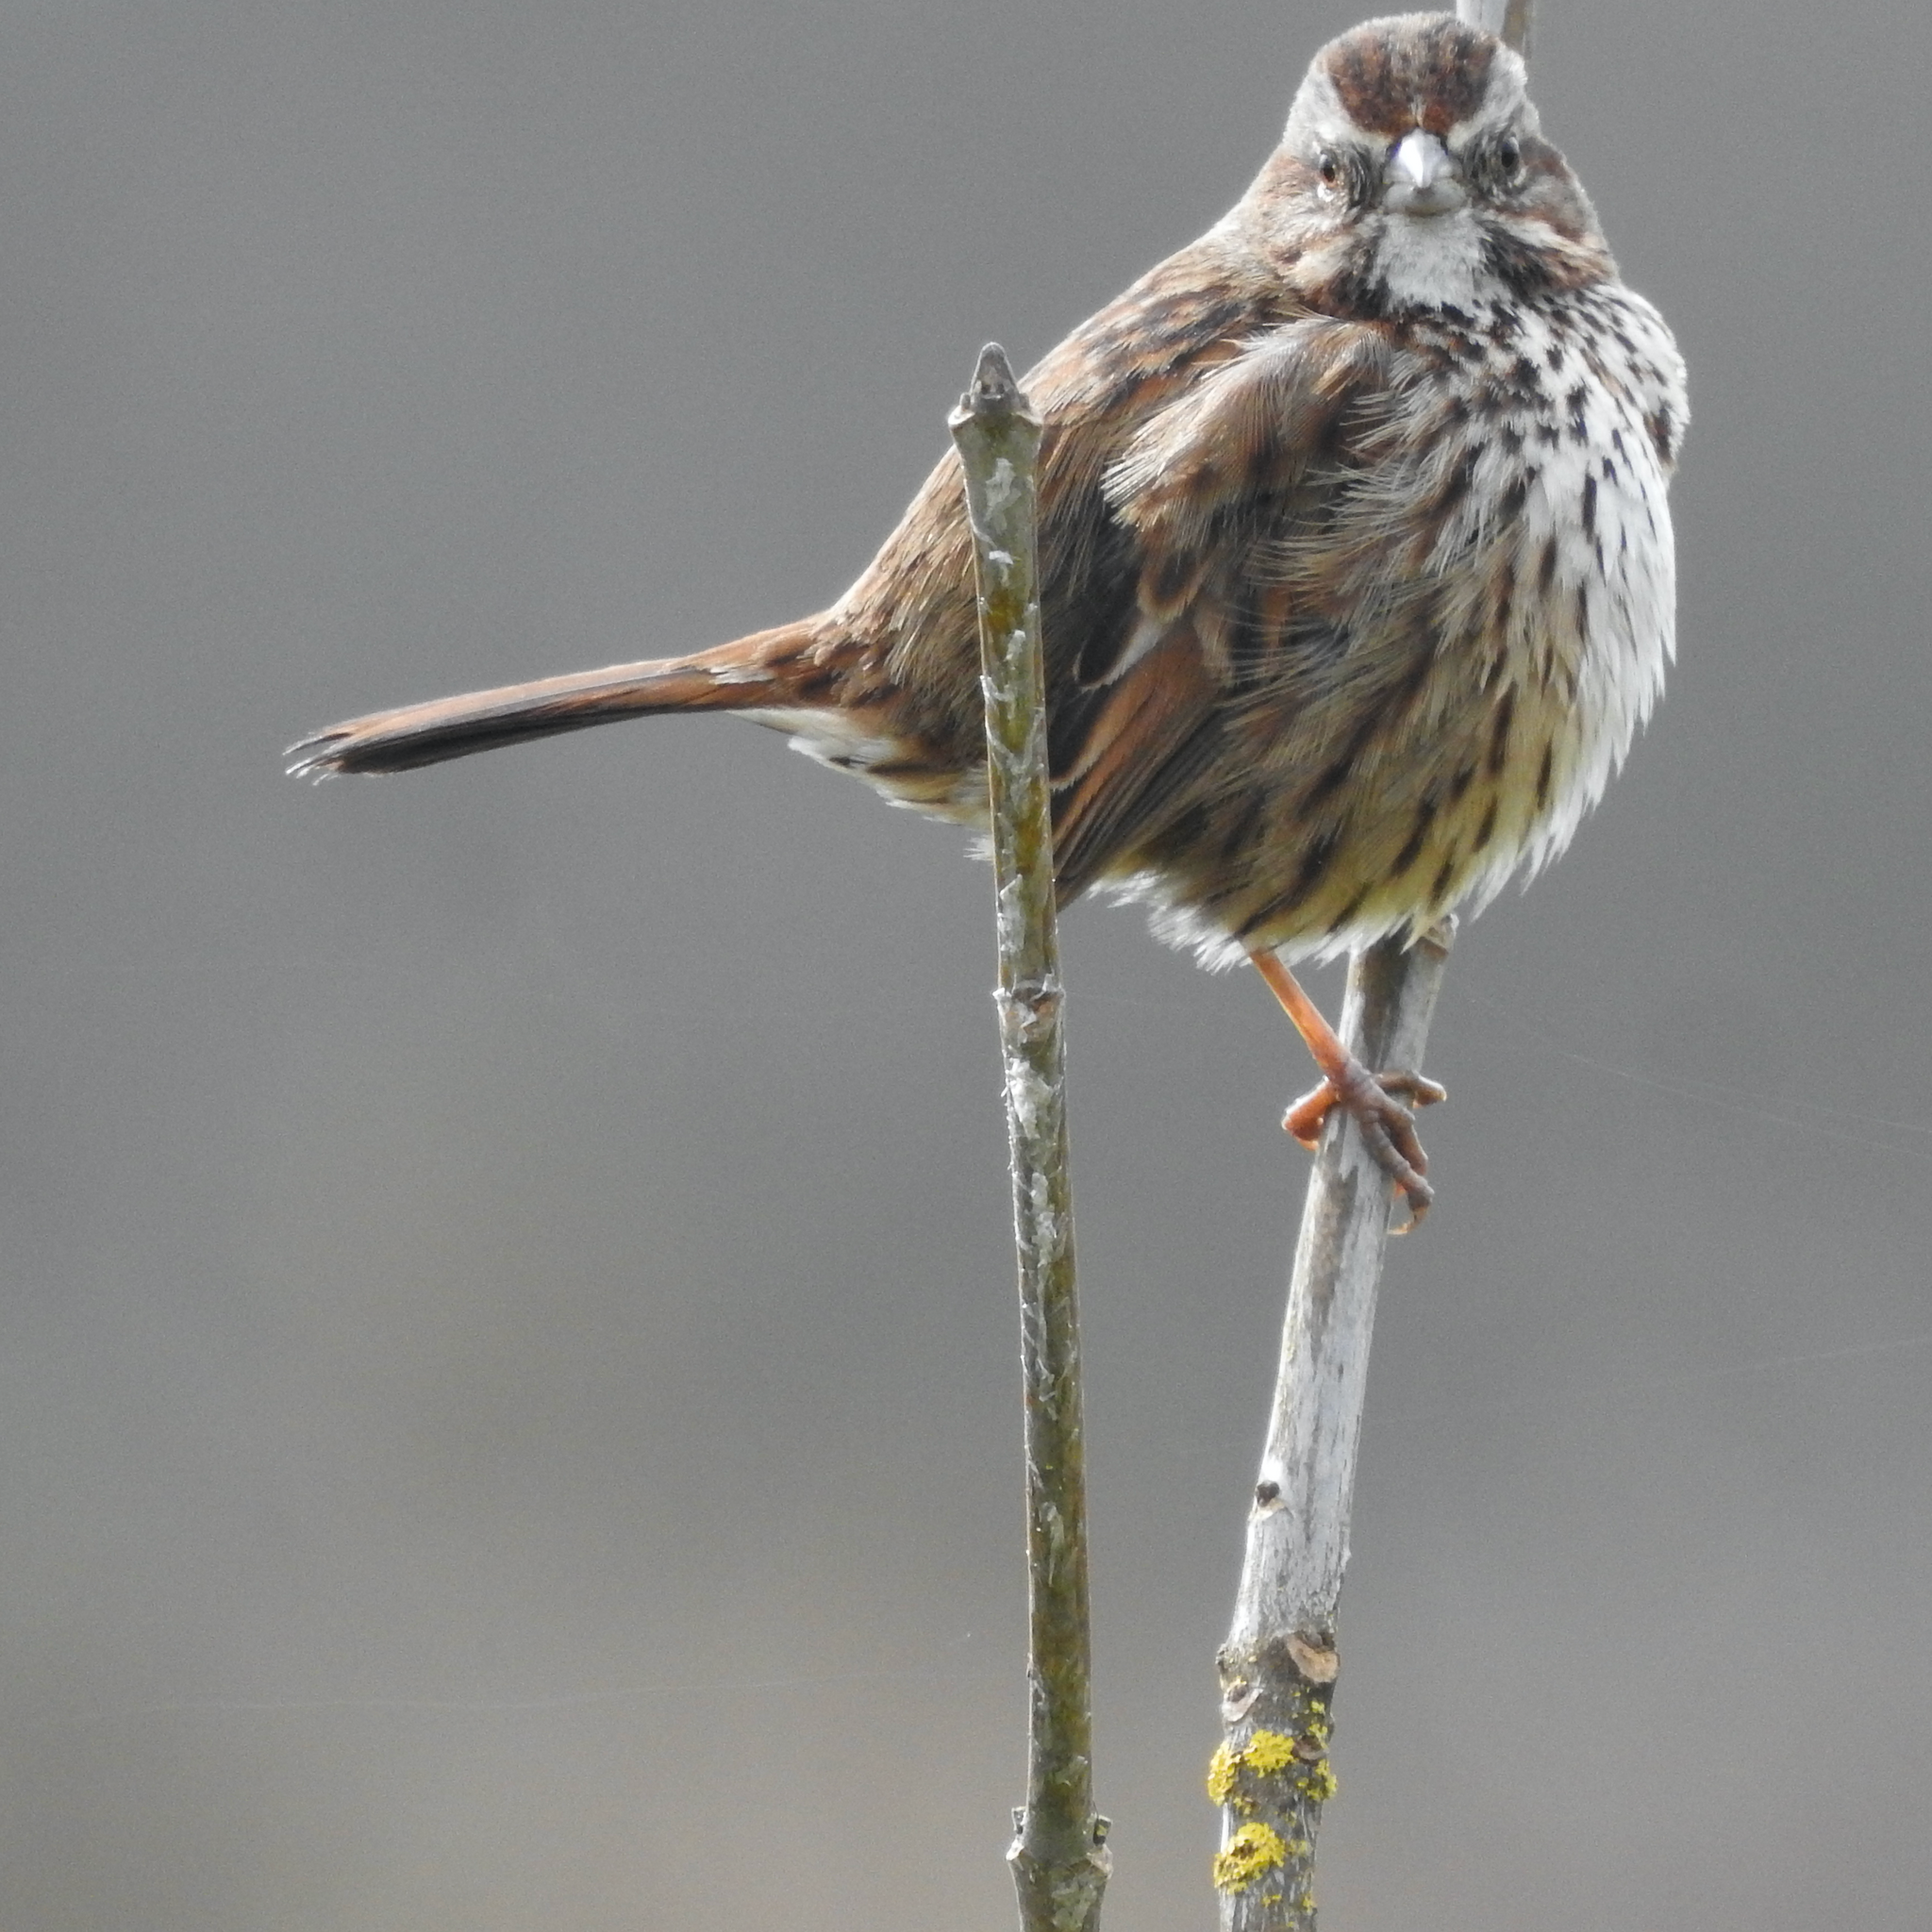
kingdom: Animalia
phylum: Chordata
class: Aves
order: Passeriformes
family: Passerellidae
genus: Melospiza
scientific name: Melospiza melodia
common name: Song sparrow
